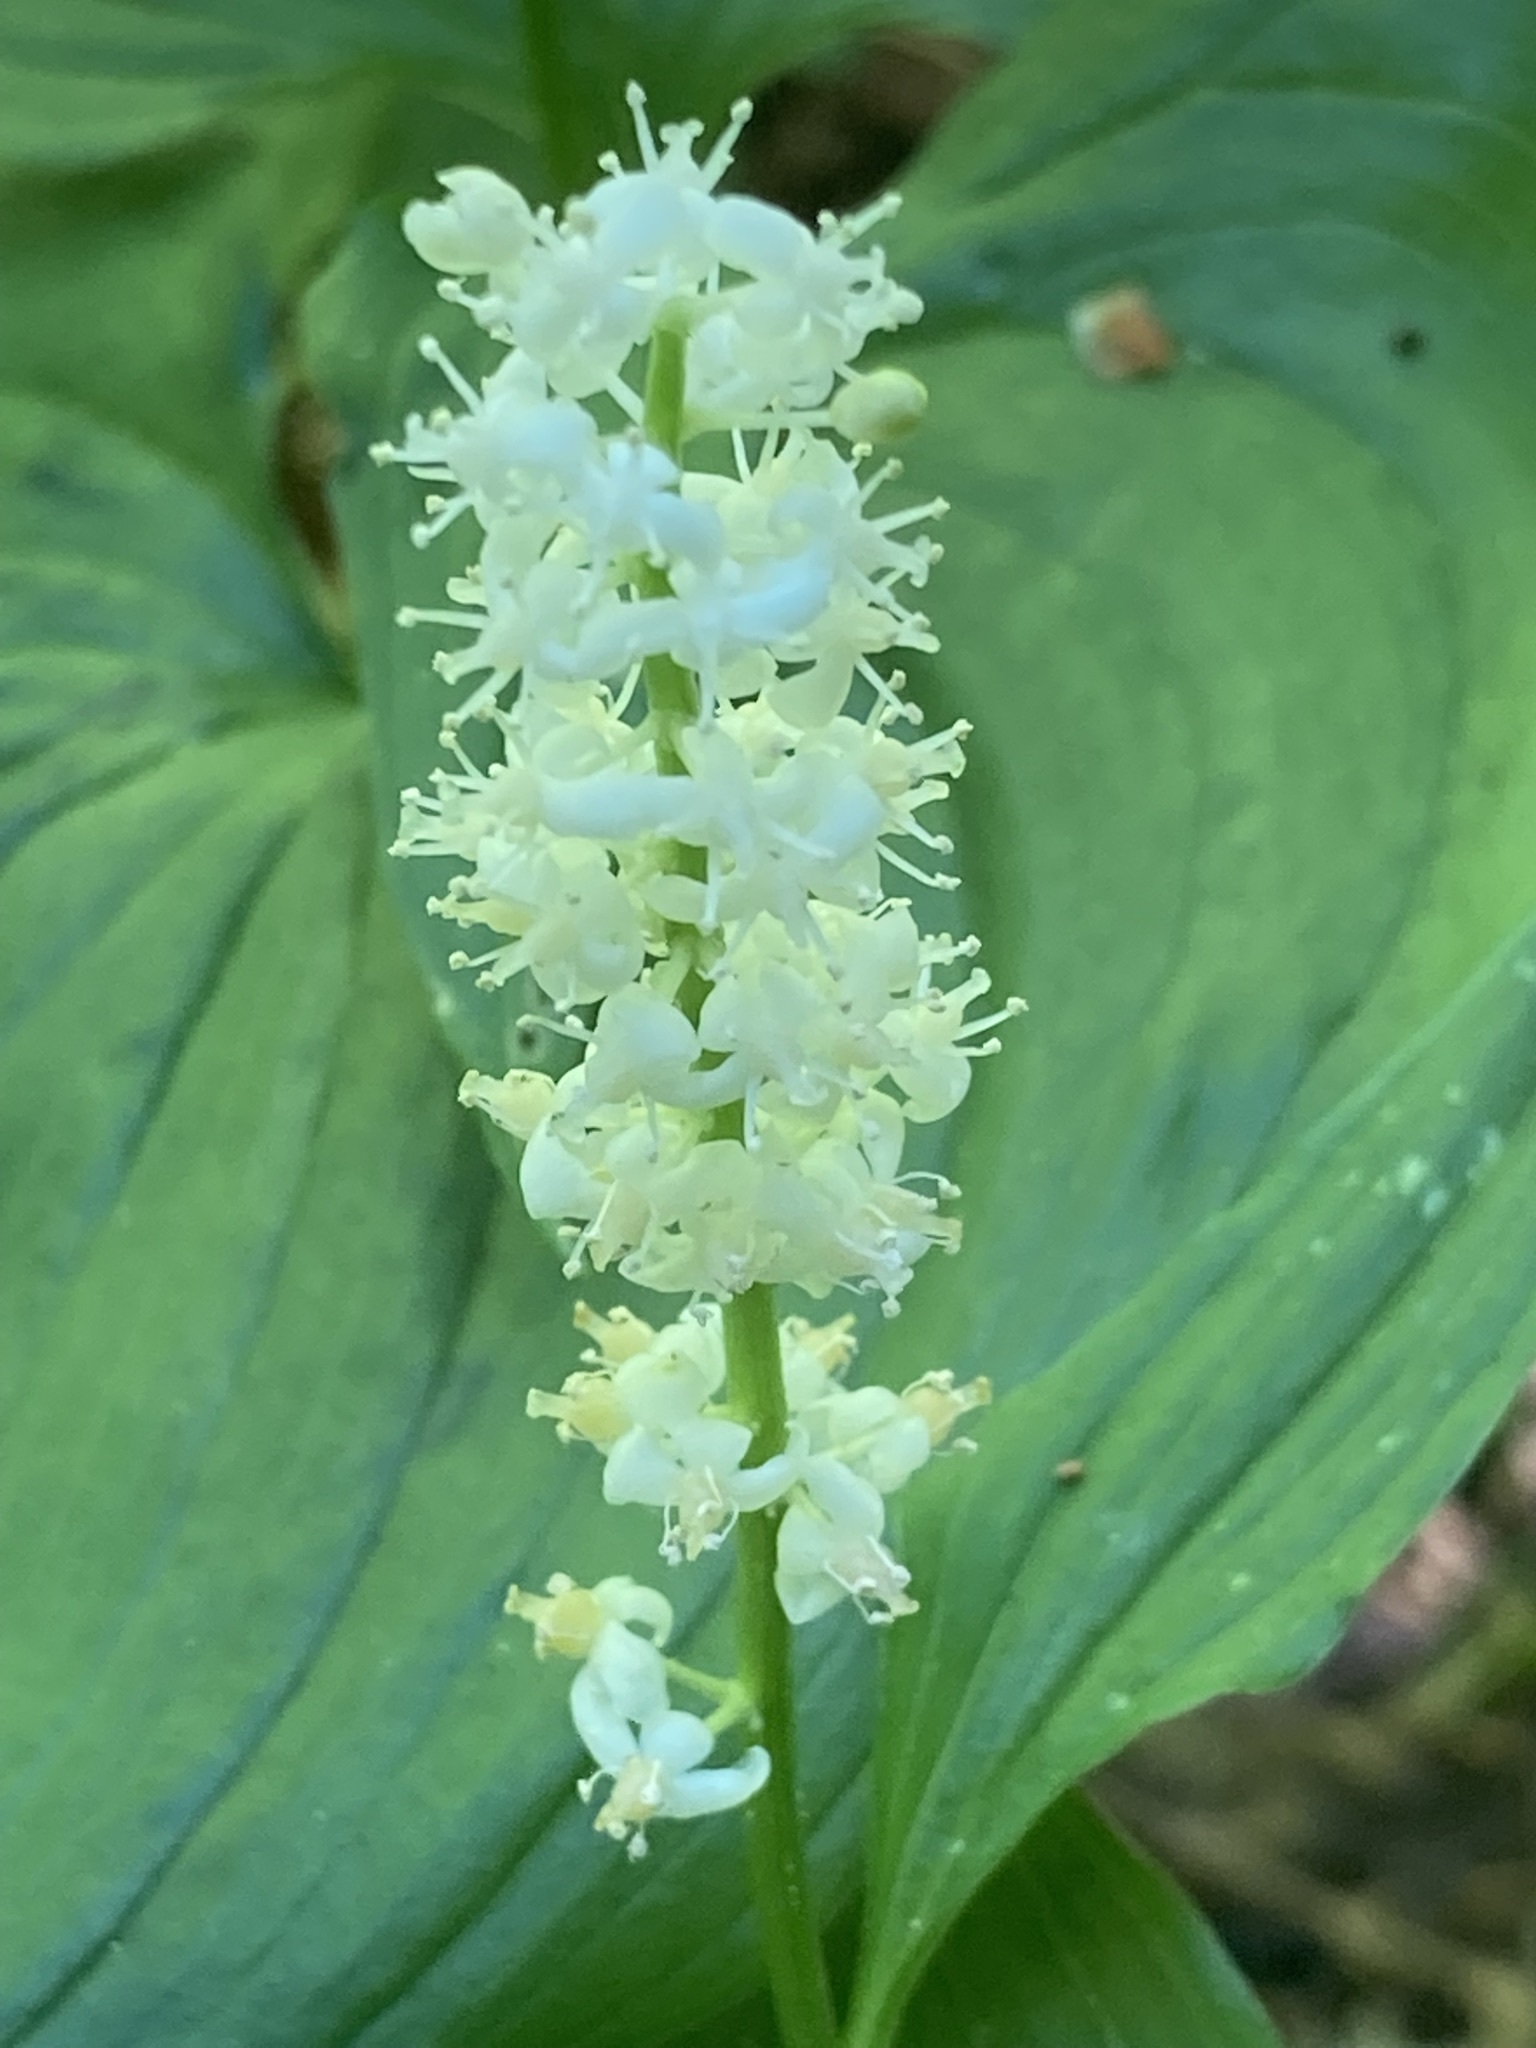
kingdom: Plantae
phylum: Tracheophyta
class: Liliopsida
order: Asparagales
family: Asparagaceae
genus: Maianthemum
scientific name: Maianthemum dilatatum
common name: False lily-of-the-valley
